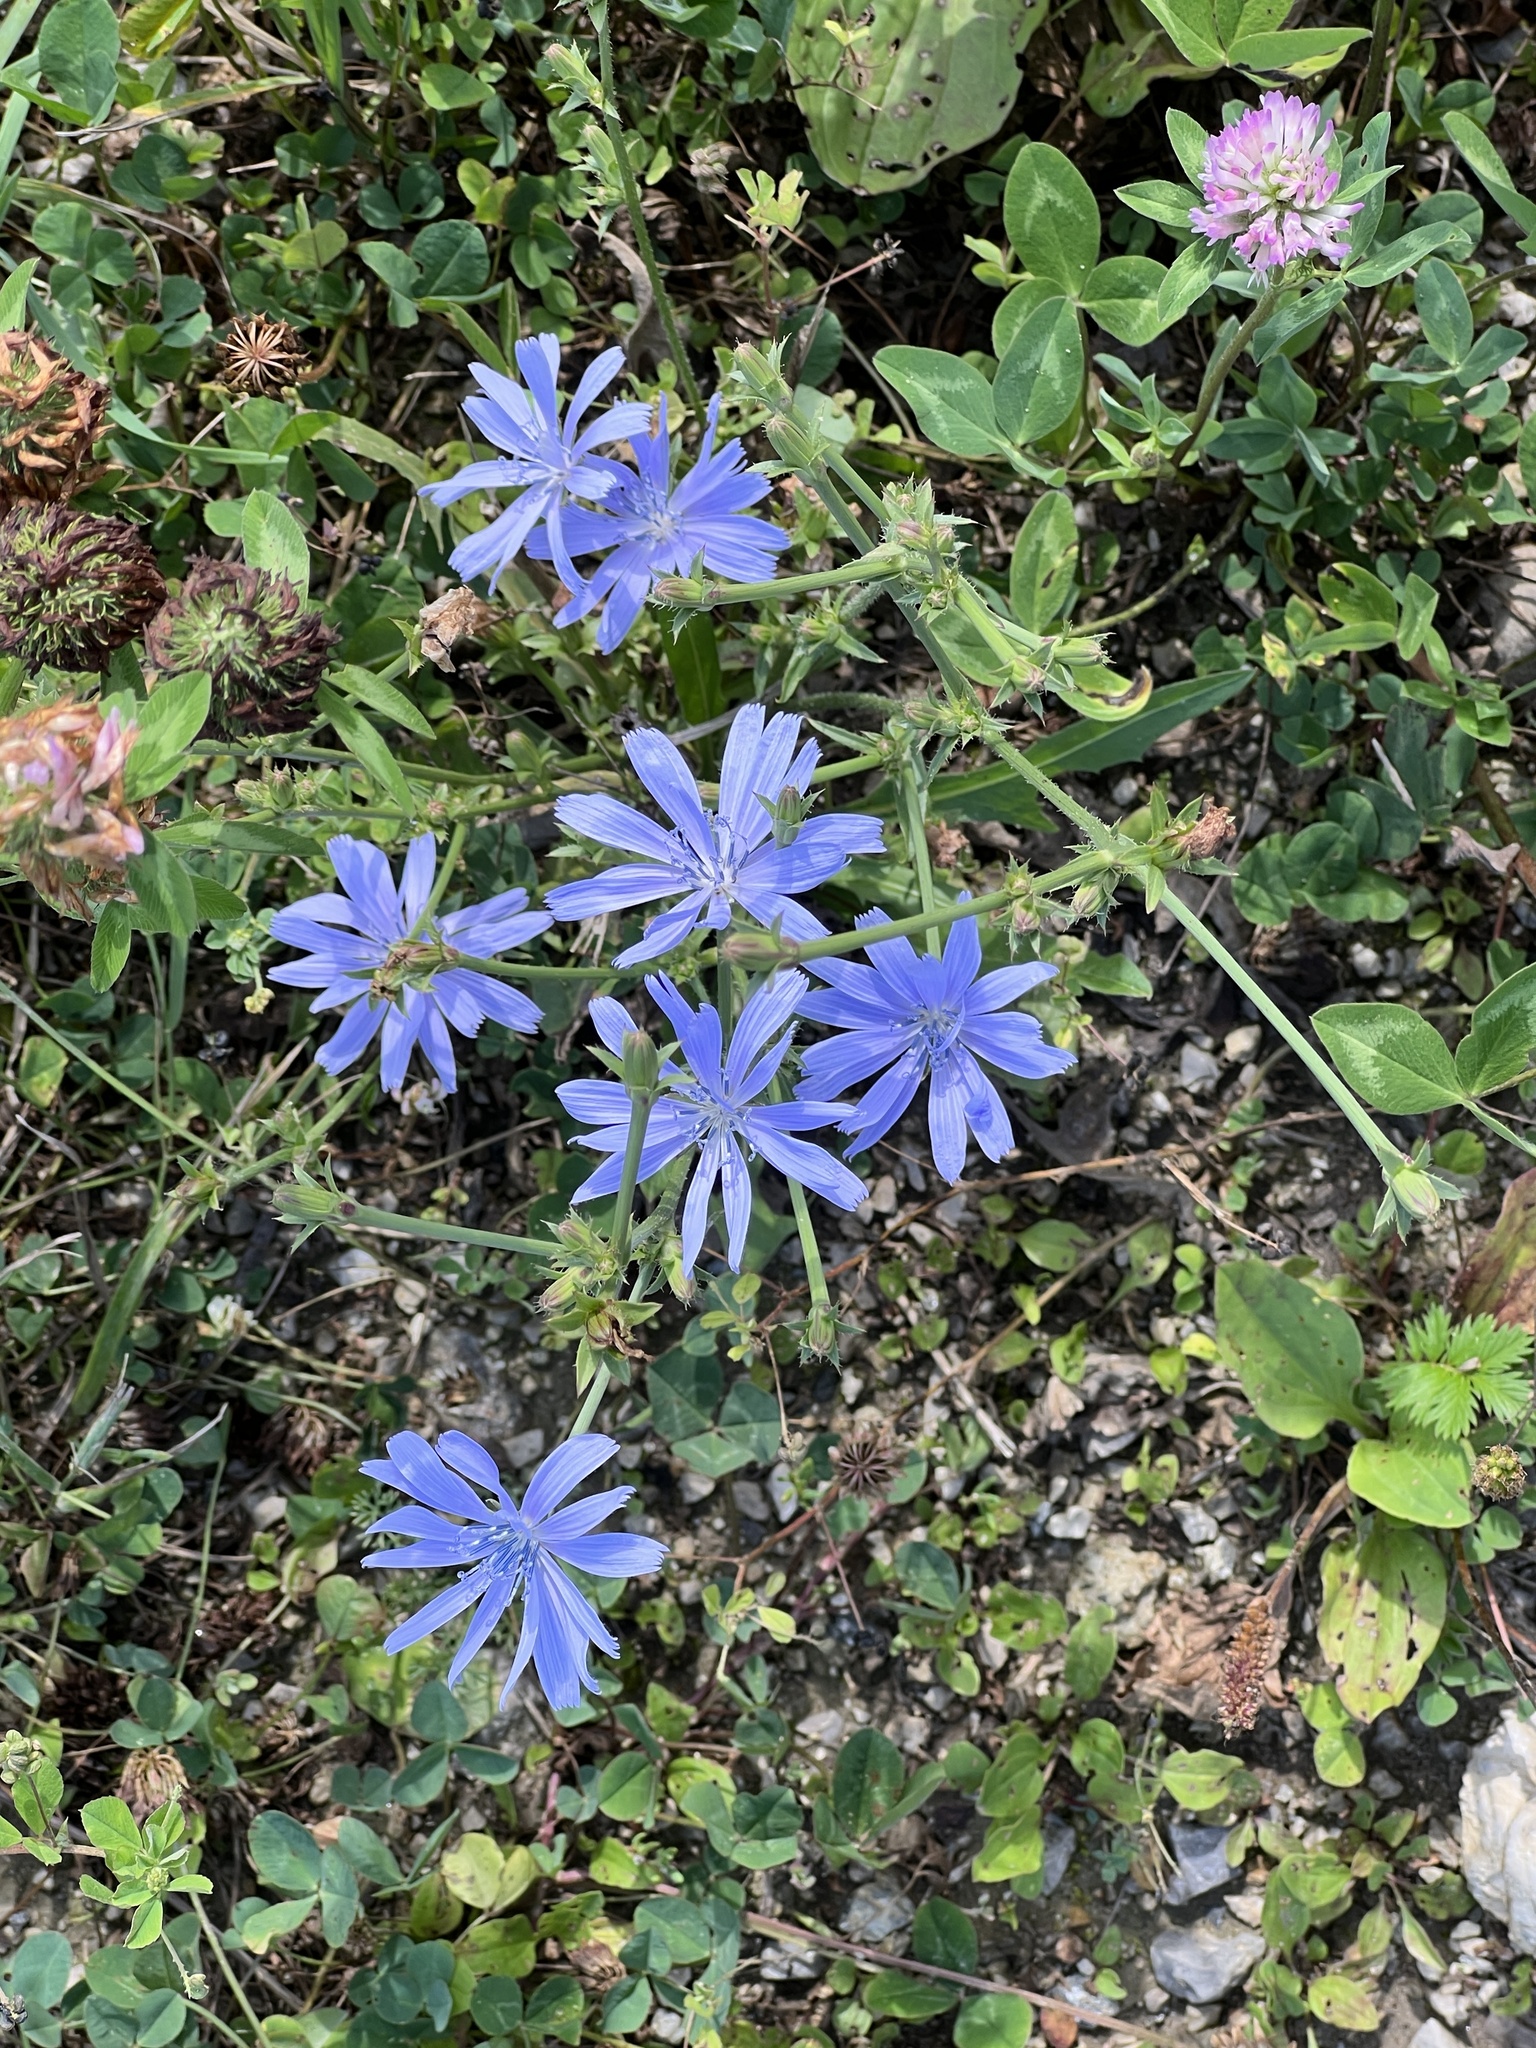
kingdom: Plantae
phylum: Tracheophyta
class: Magnoliopsida
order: Asterales
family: Asteraceae
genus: Cichorium
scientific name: Cichorium intybus
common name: Chicory
